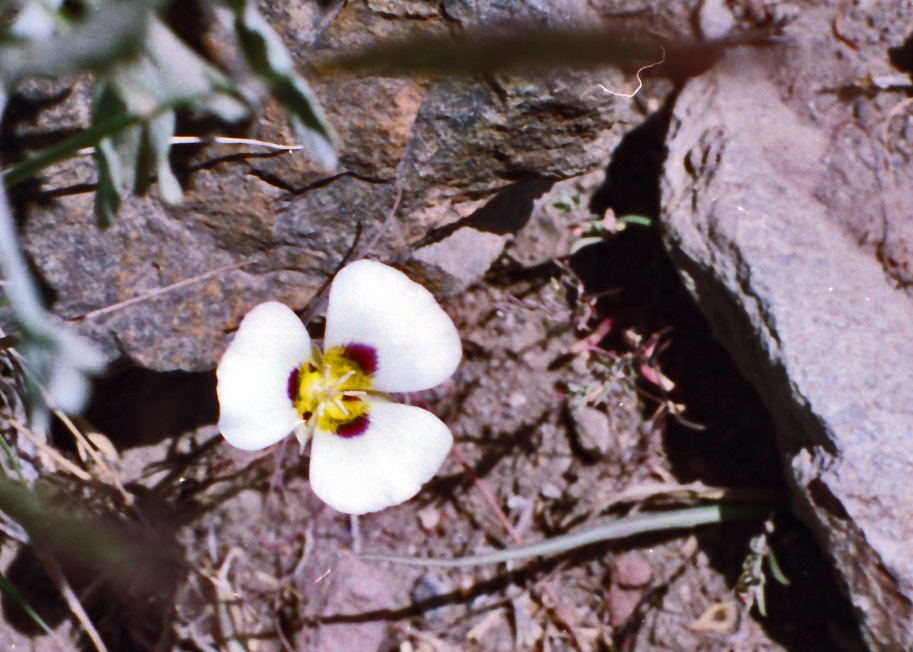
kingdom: Plantae
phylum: Tracheophyta
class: Liliopsida
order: Liliales
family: Liliaceae
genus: Calochortus
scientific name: Calochortus leichtlinii
